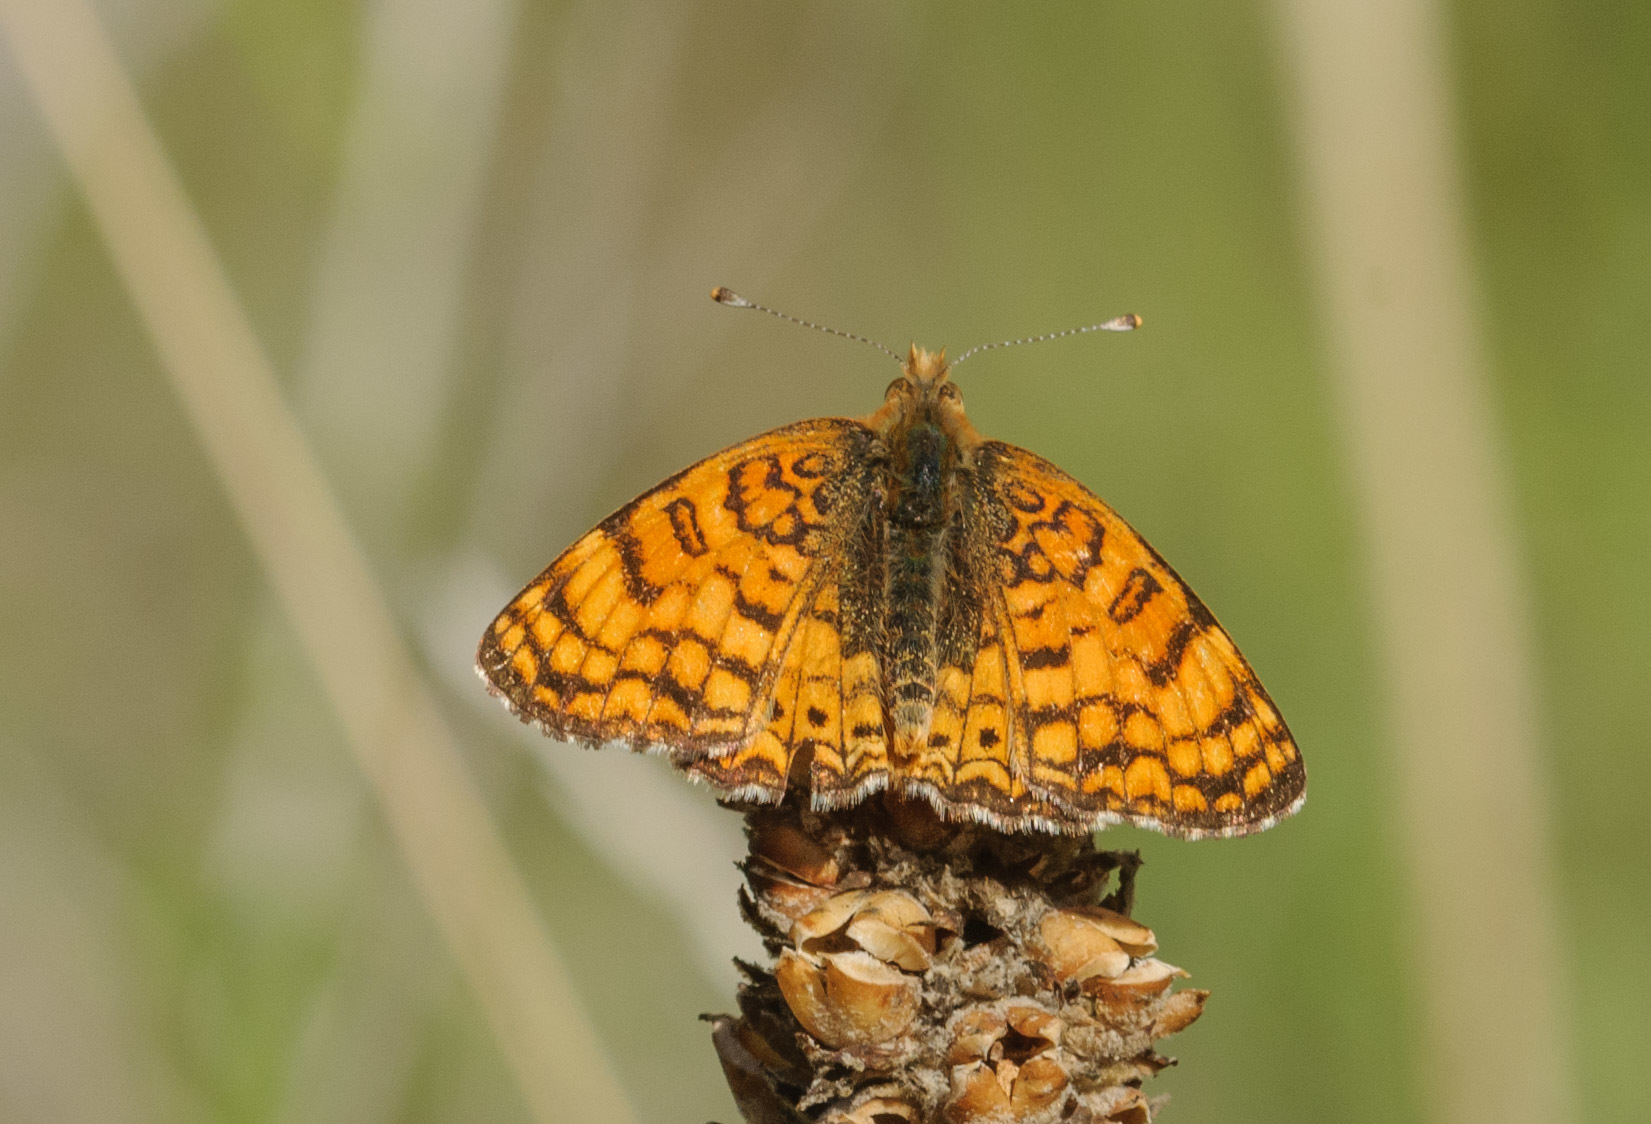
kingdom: Animalia
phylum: Arthropoda
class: Insecta
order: Lepidoptera
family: Nymphalidae
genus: Eresia
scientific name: Eresia aveyrona
